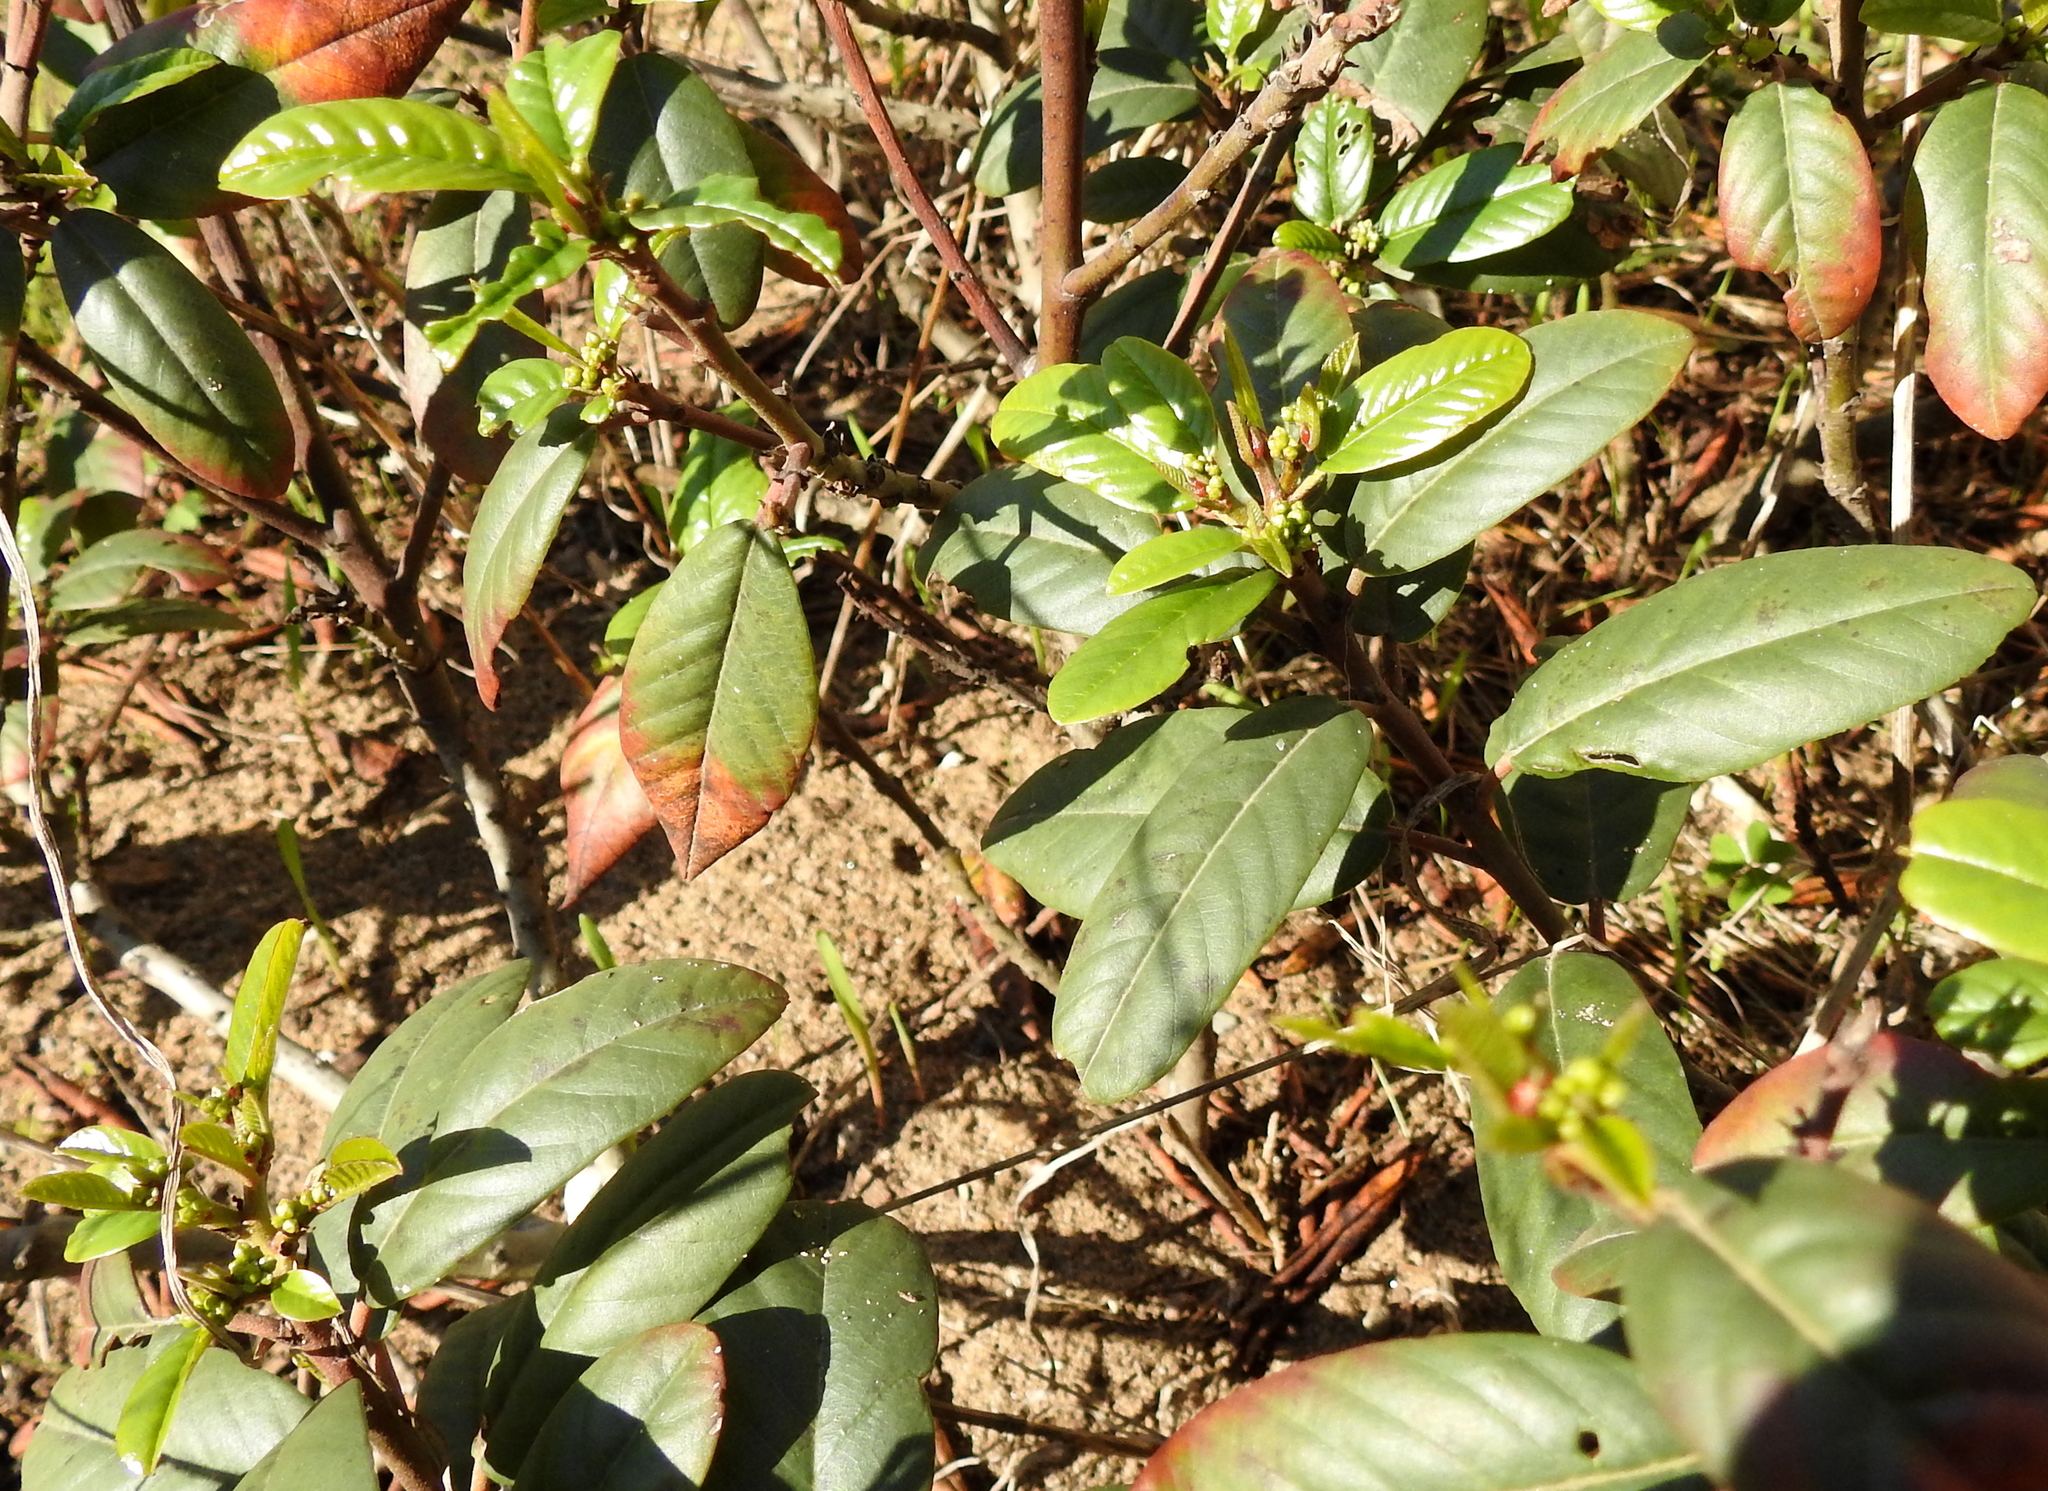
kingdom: Plantae
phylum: Tracheophyta
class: Magnoliopsida
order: Rosales
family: Rhamnaceae
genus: Frangula
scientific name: Frangula californica
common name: California buckthorn
